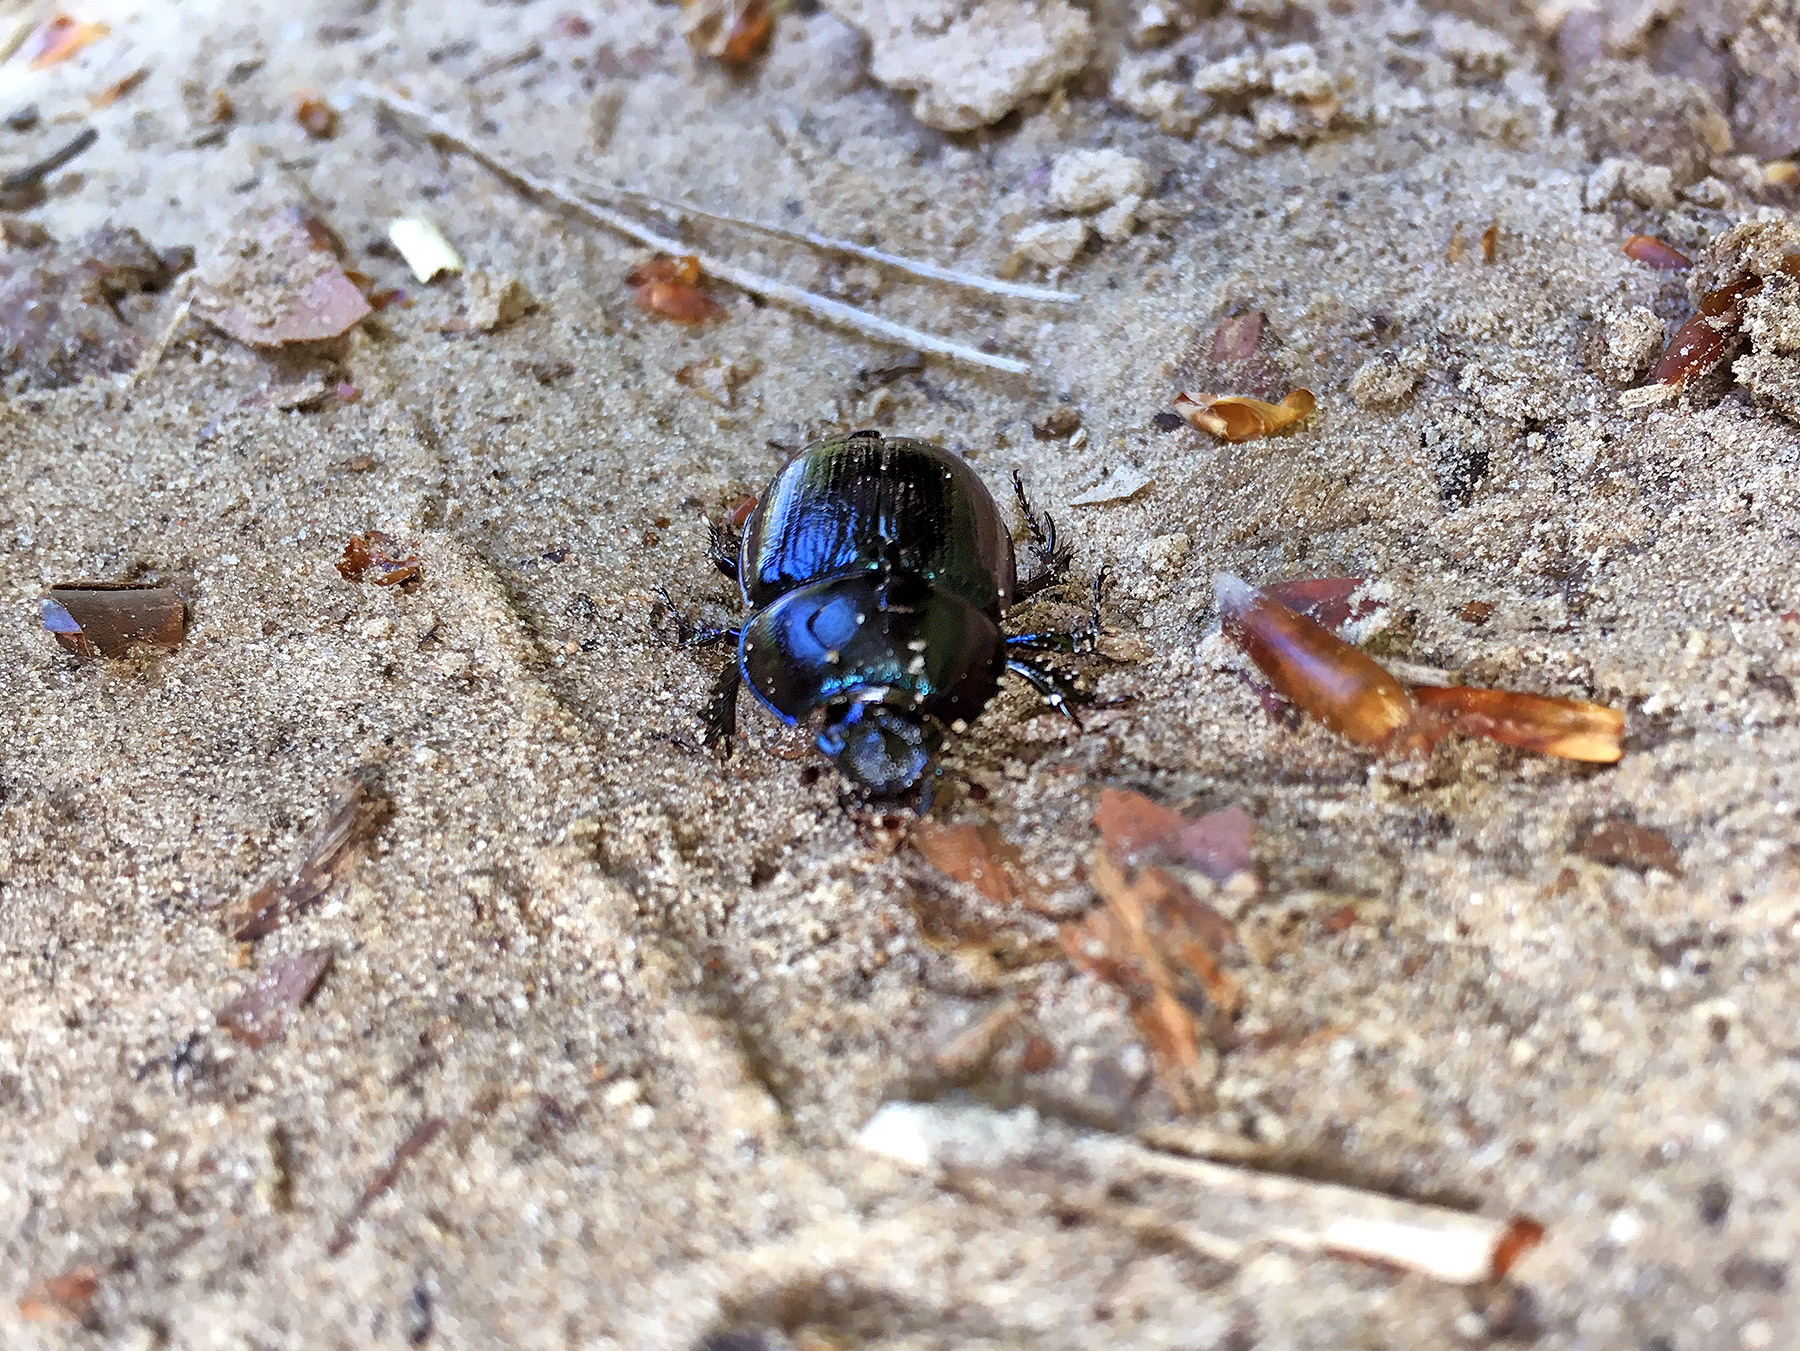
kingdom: Animalia
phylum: Arthropoda
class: Insecta
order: Coleoptera
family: Geotrupidae
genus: Anoplotrupes
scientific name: Anoplotrupes stercorosus
